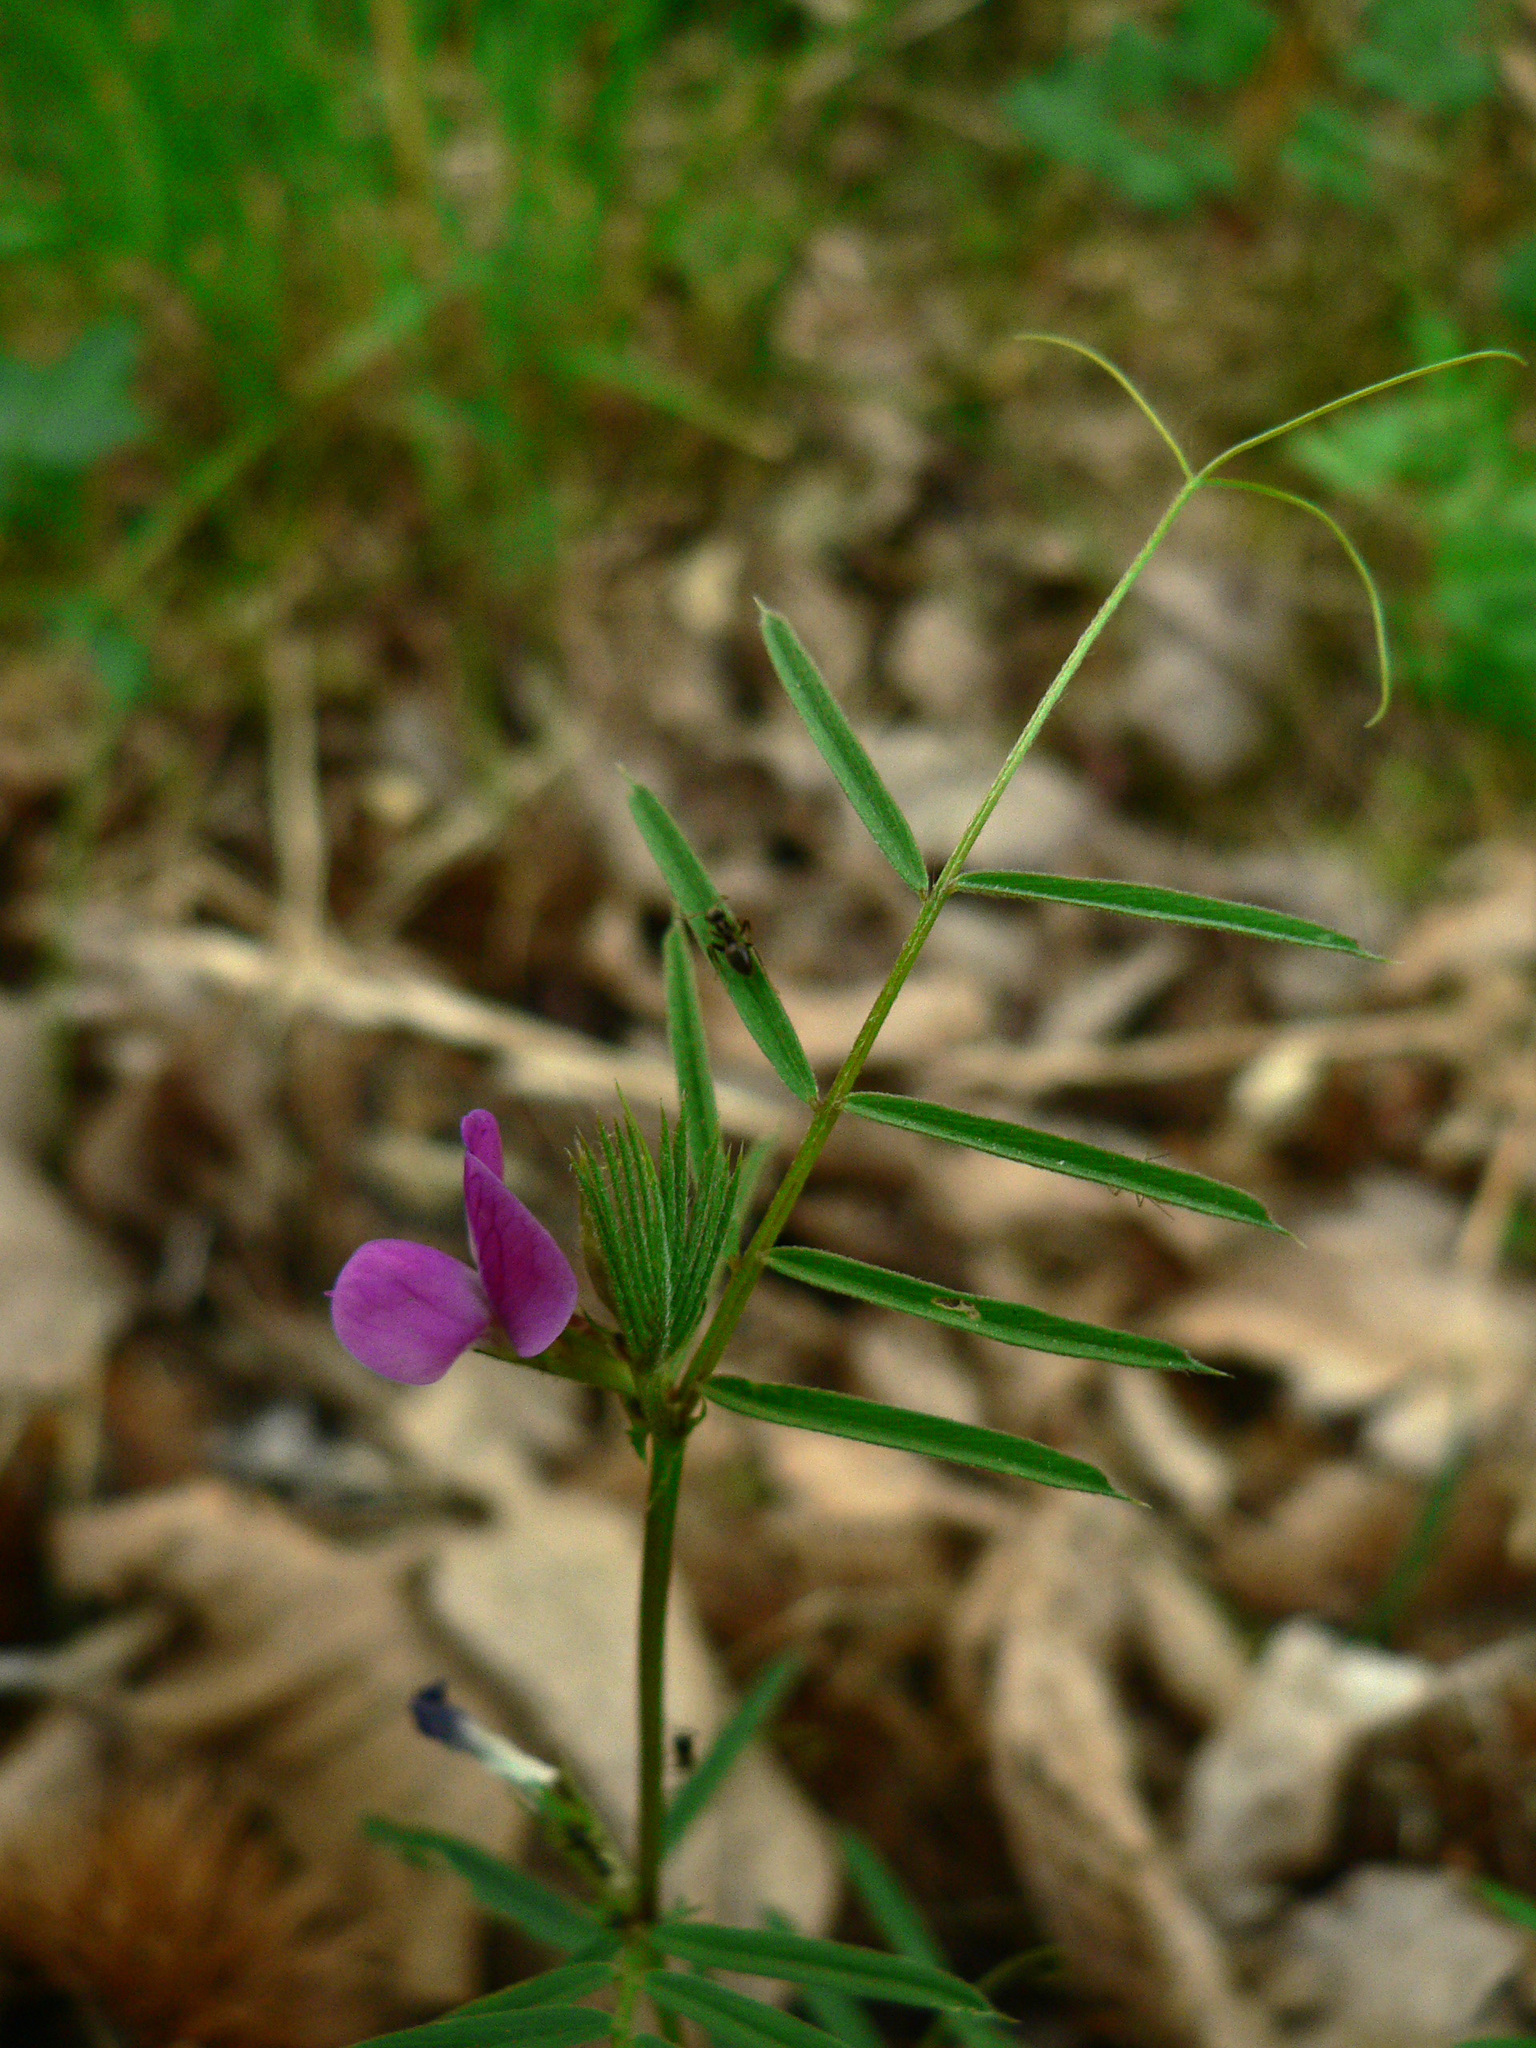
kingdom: Plantae
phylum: Tracheophyta
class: Magnoliopsida
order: Fabales
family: Fabaceae
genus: Vicia
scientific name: Vicia sativa
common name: Garden vetch
